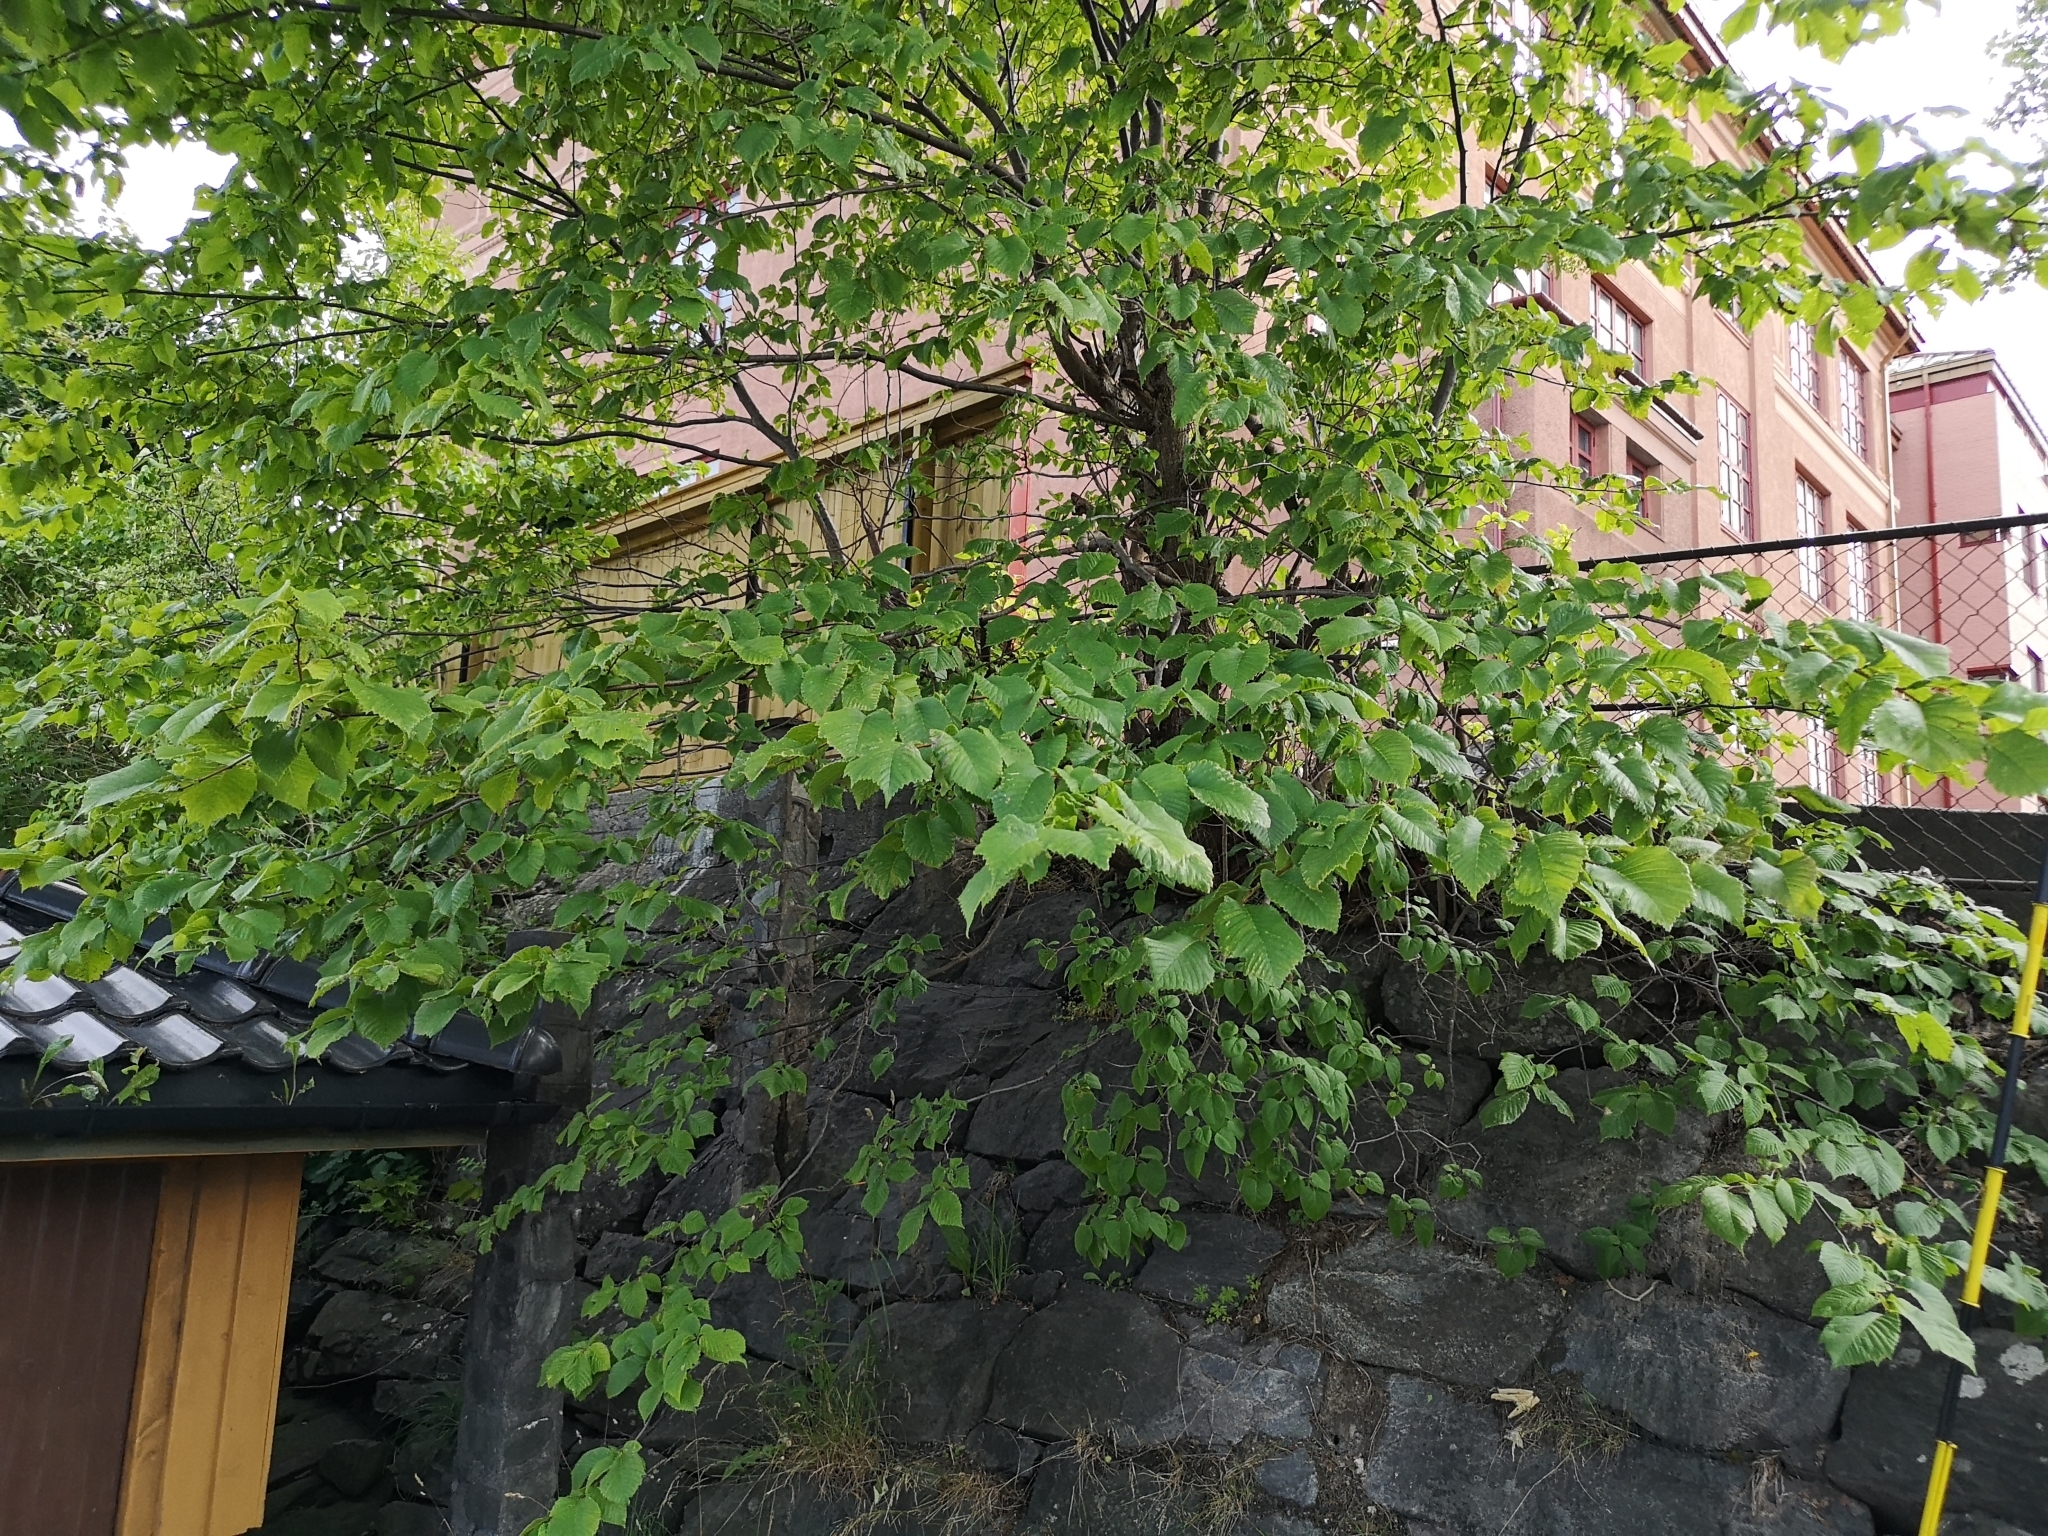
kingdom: Plantae
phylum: Tracheophyta
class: Magnoliopsida
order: Rosales
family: Ulmaceae
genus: Ulmus
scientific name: Ulmus glabra
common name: Wych elm
